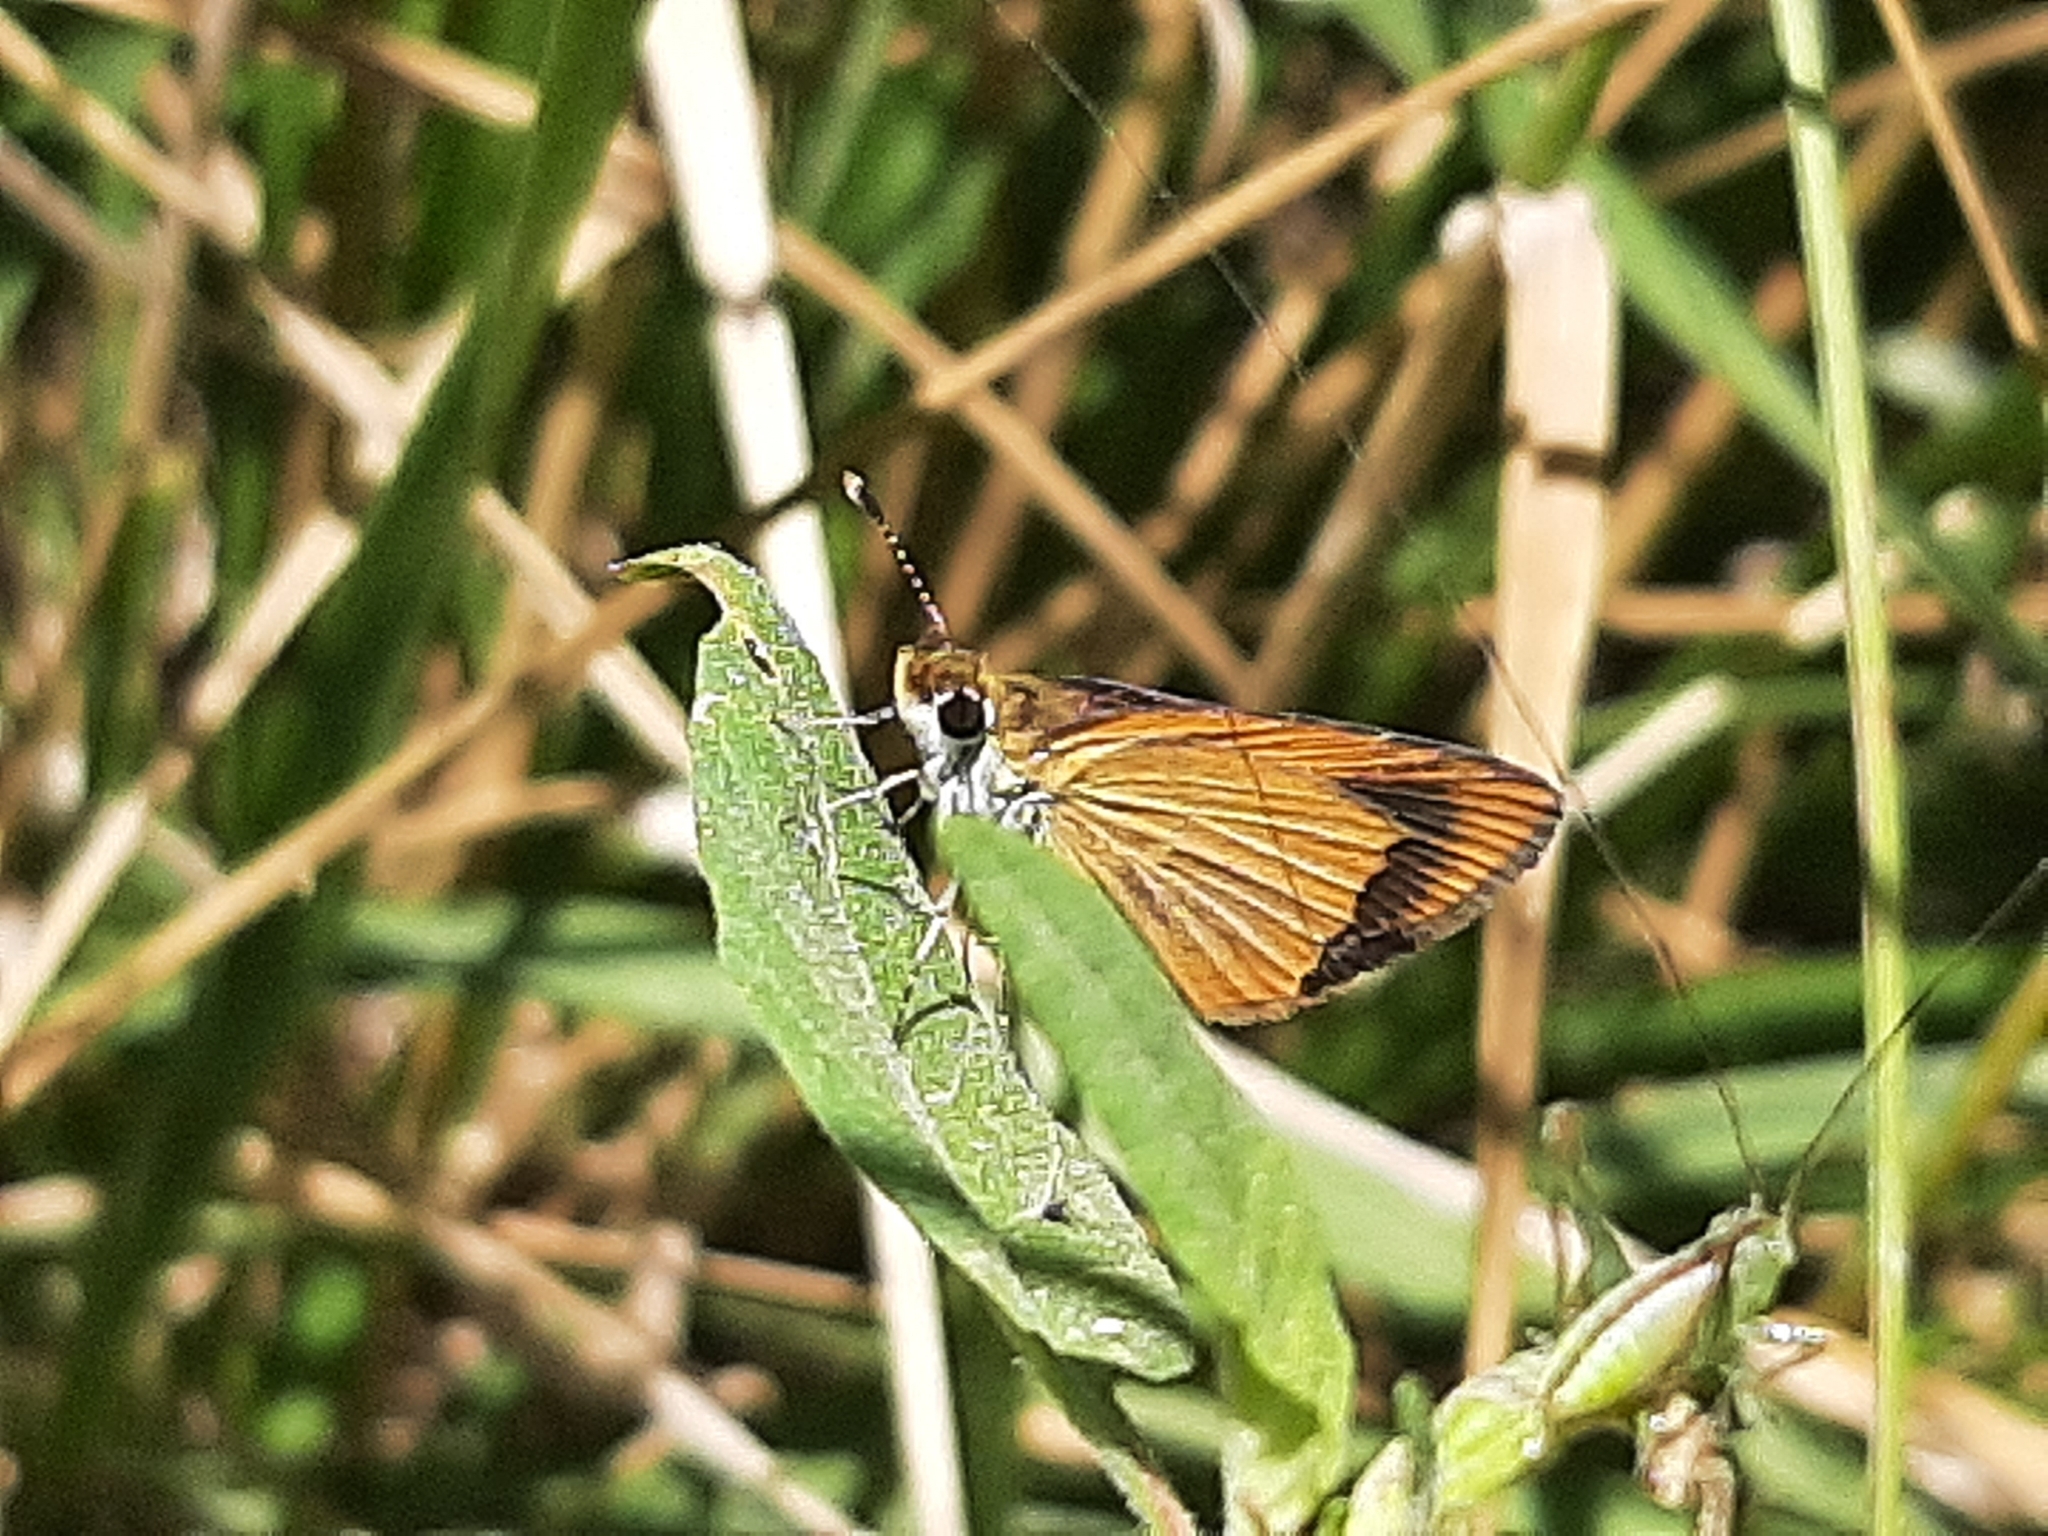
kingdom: Animalia
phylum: Arthropoda
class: Insecta
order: Lepidoptera
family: Hesperiidae
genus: Ancyloxypha
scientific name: Ancyloxypha numitor
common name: Least skipper
